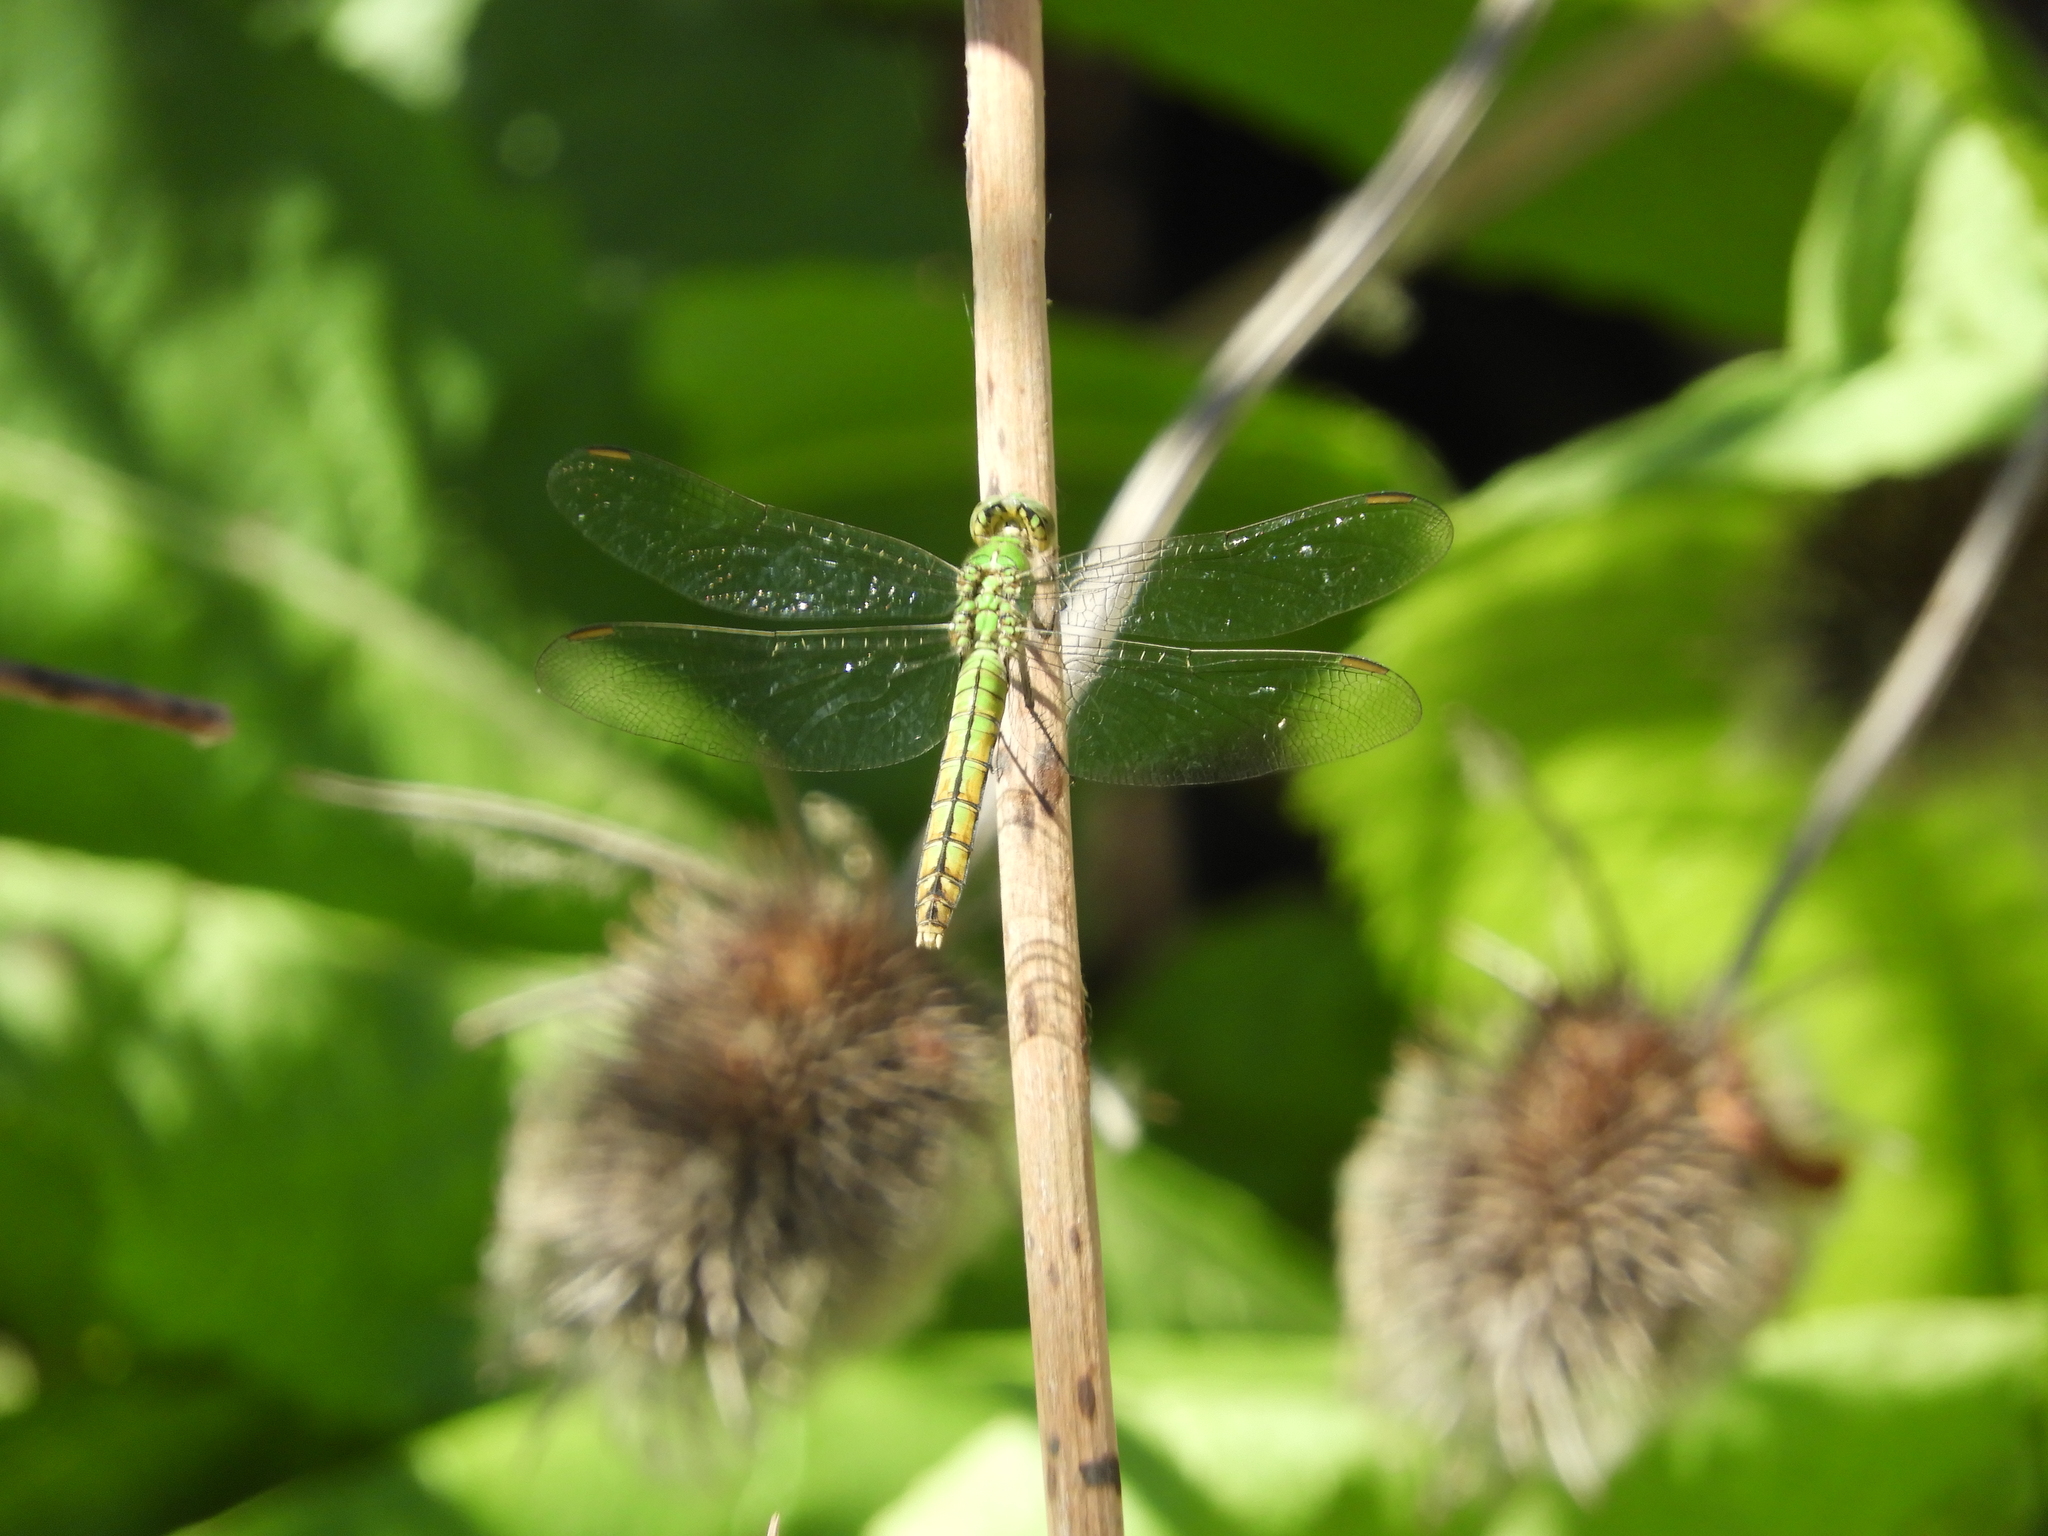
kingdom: Animalia
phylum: Arthropoda
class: Insecta
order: Odonata
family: Libellulidae
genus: Erythemis
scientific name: Erythemis collocata
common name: Western pondhawk
